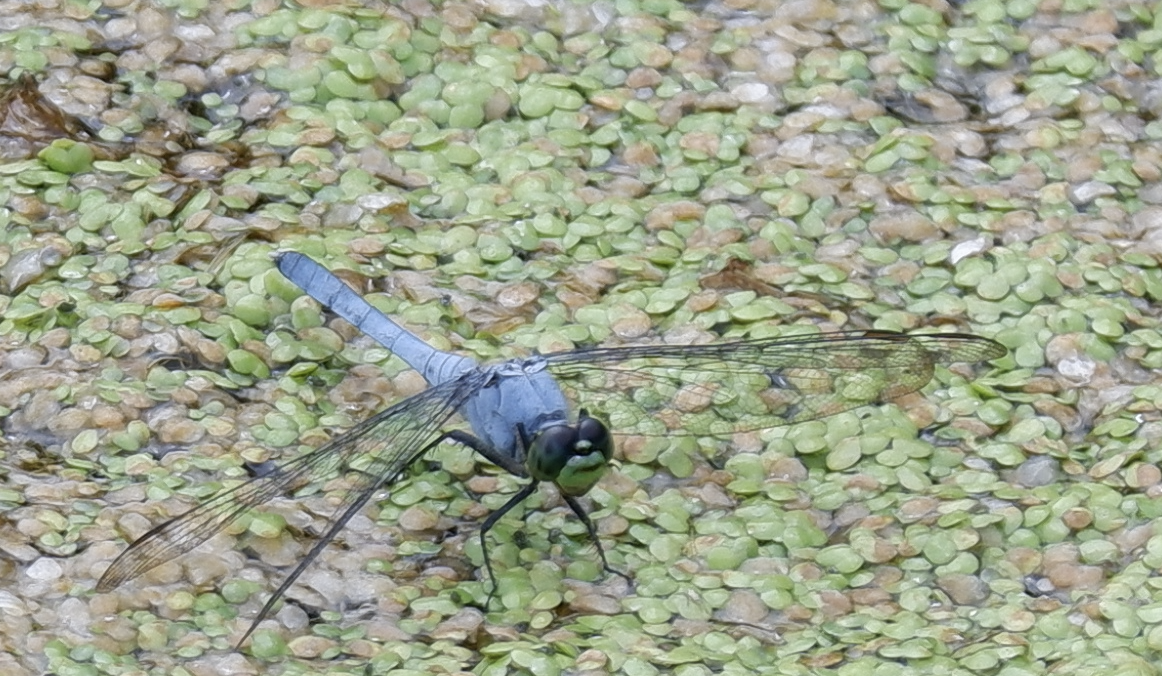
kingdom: Animalia
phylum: Arthropoda
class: Insecta
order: Odonata
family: Libellulidae
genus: Erythemis
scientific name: Erythemis simplicicollis
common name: Eastern pondhawk
